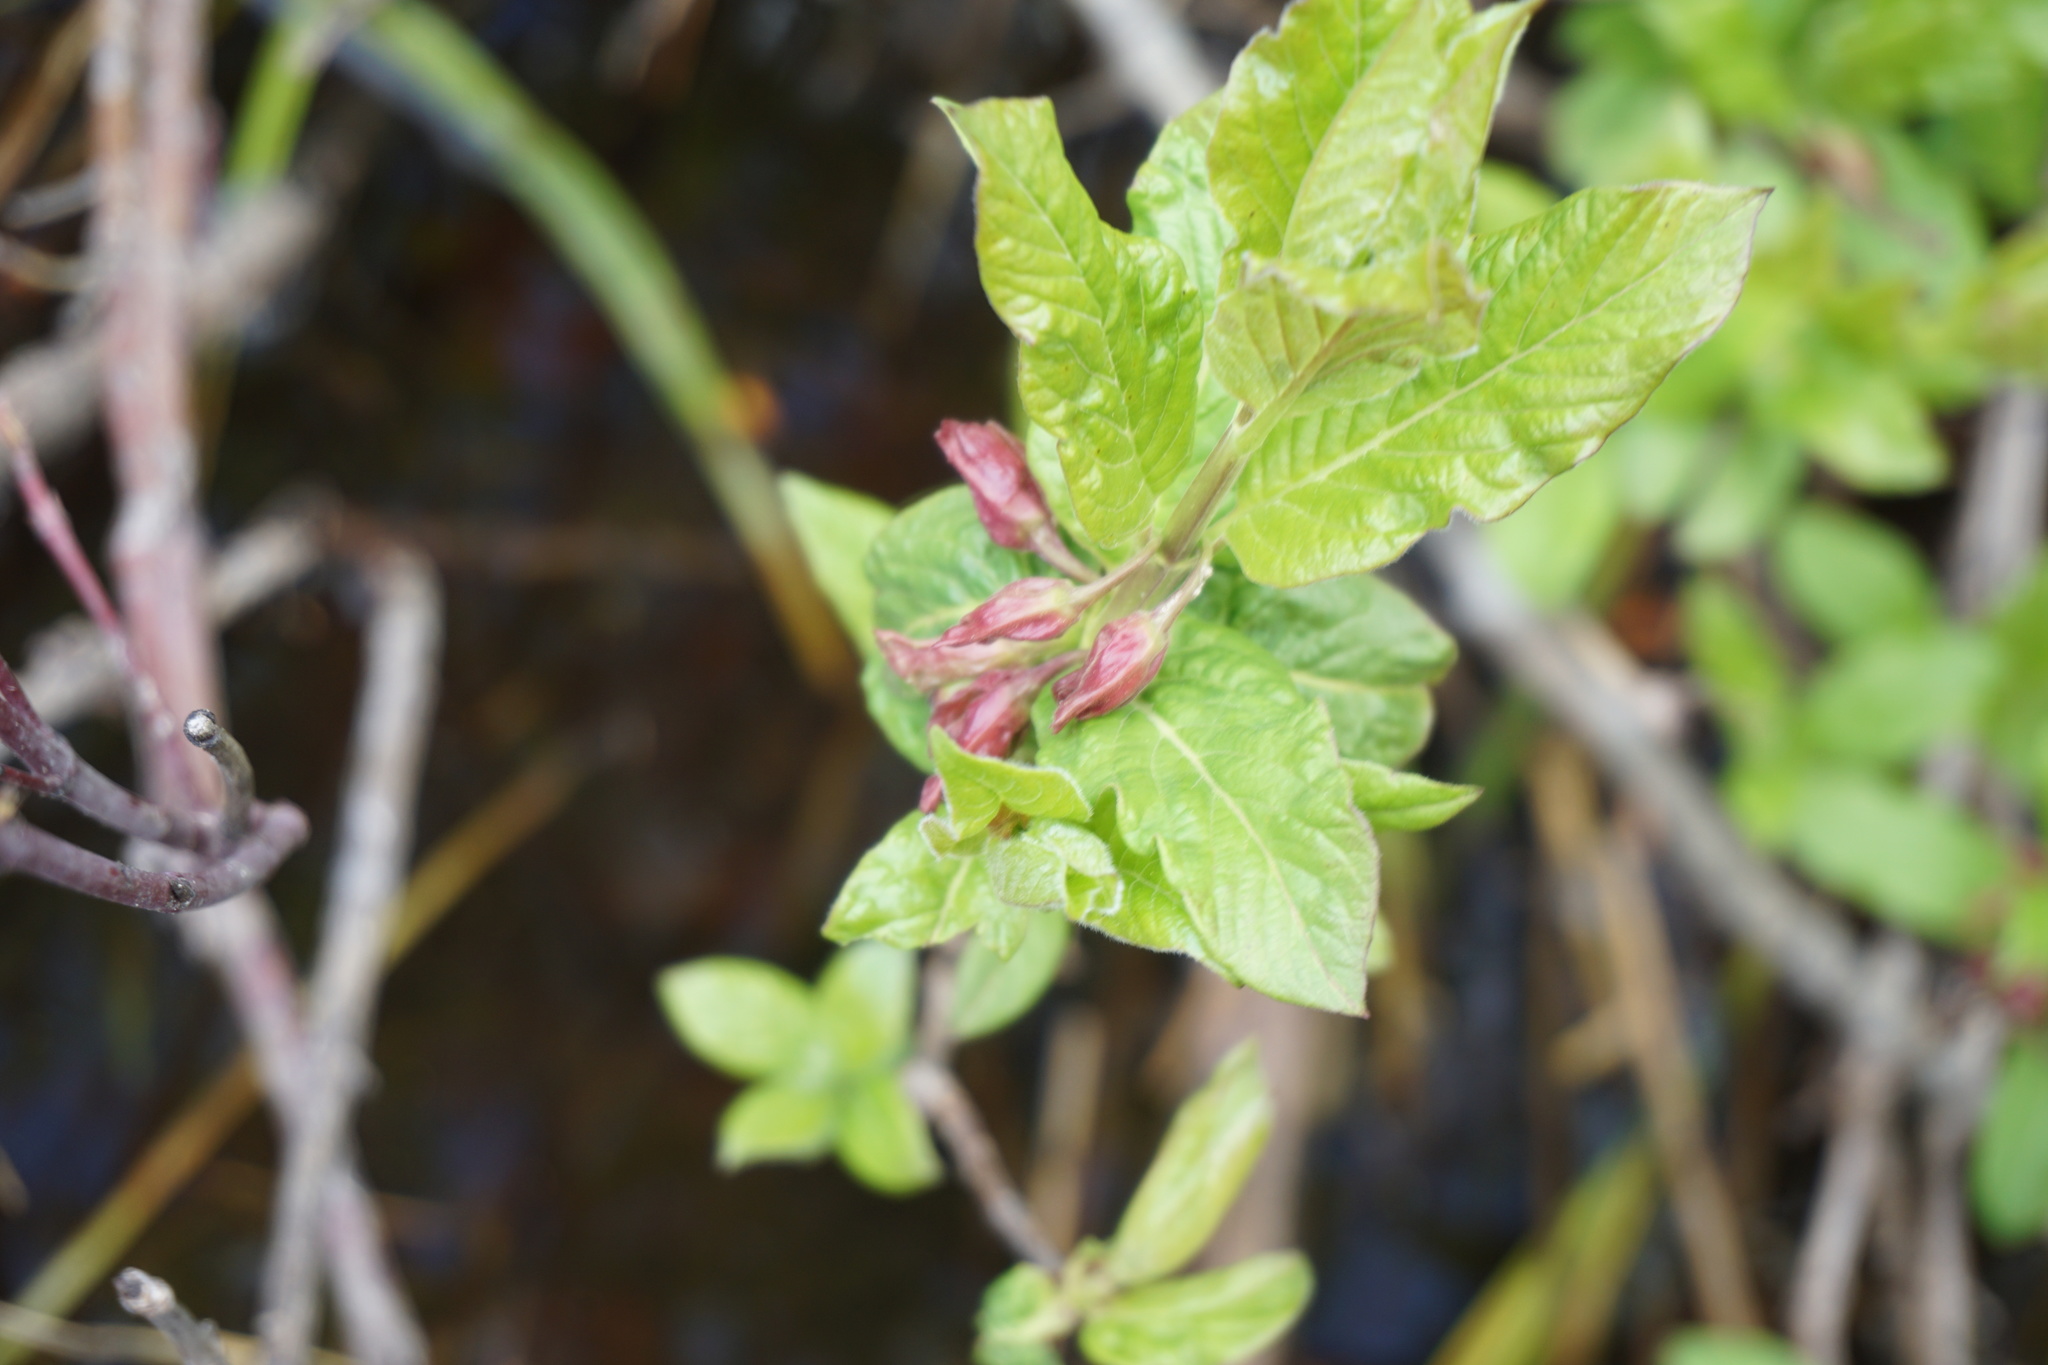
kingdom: Plantae
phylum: Tracheophyta
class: Magnoliopsida
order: Dipsacales
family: Caprifoliaceae
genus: Lonicera
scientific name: Lonicera involucrata
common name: Californian honeysuckle
